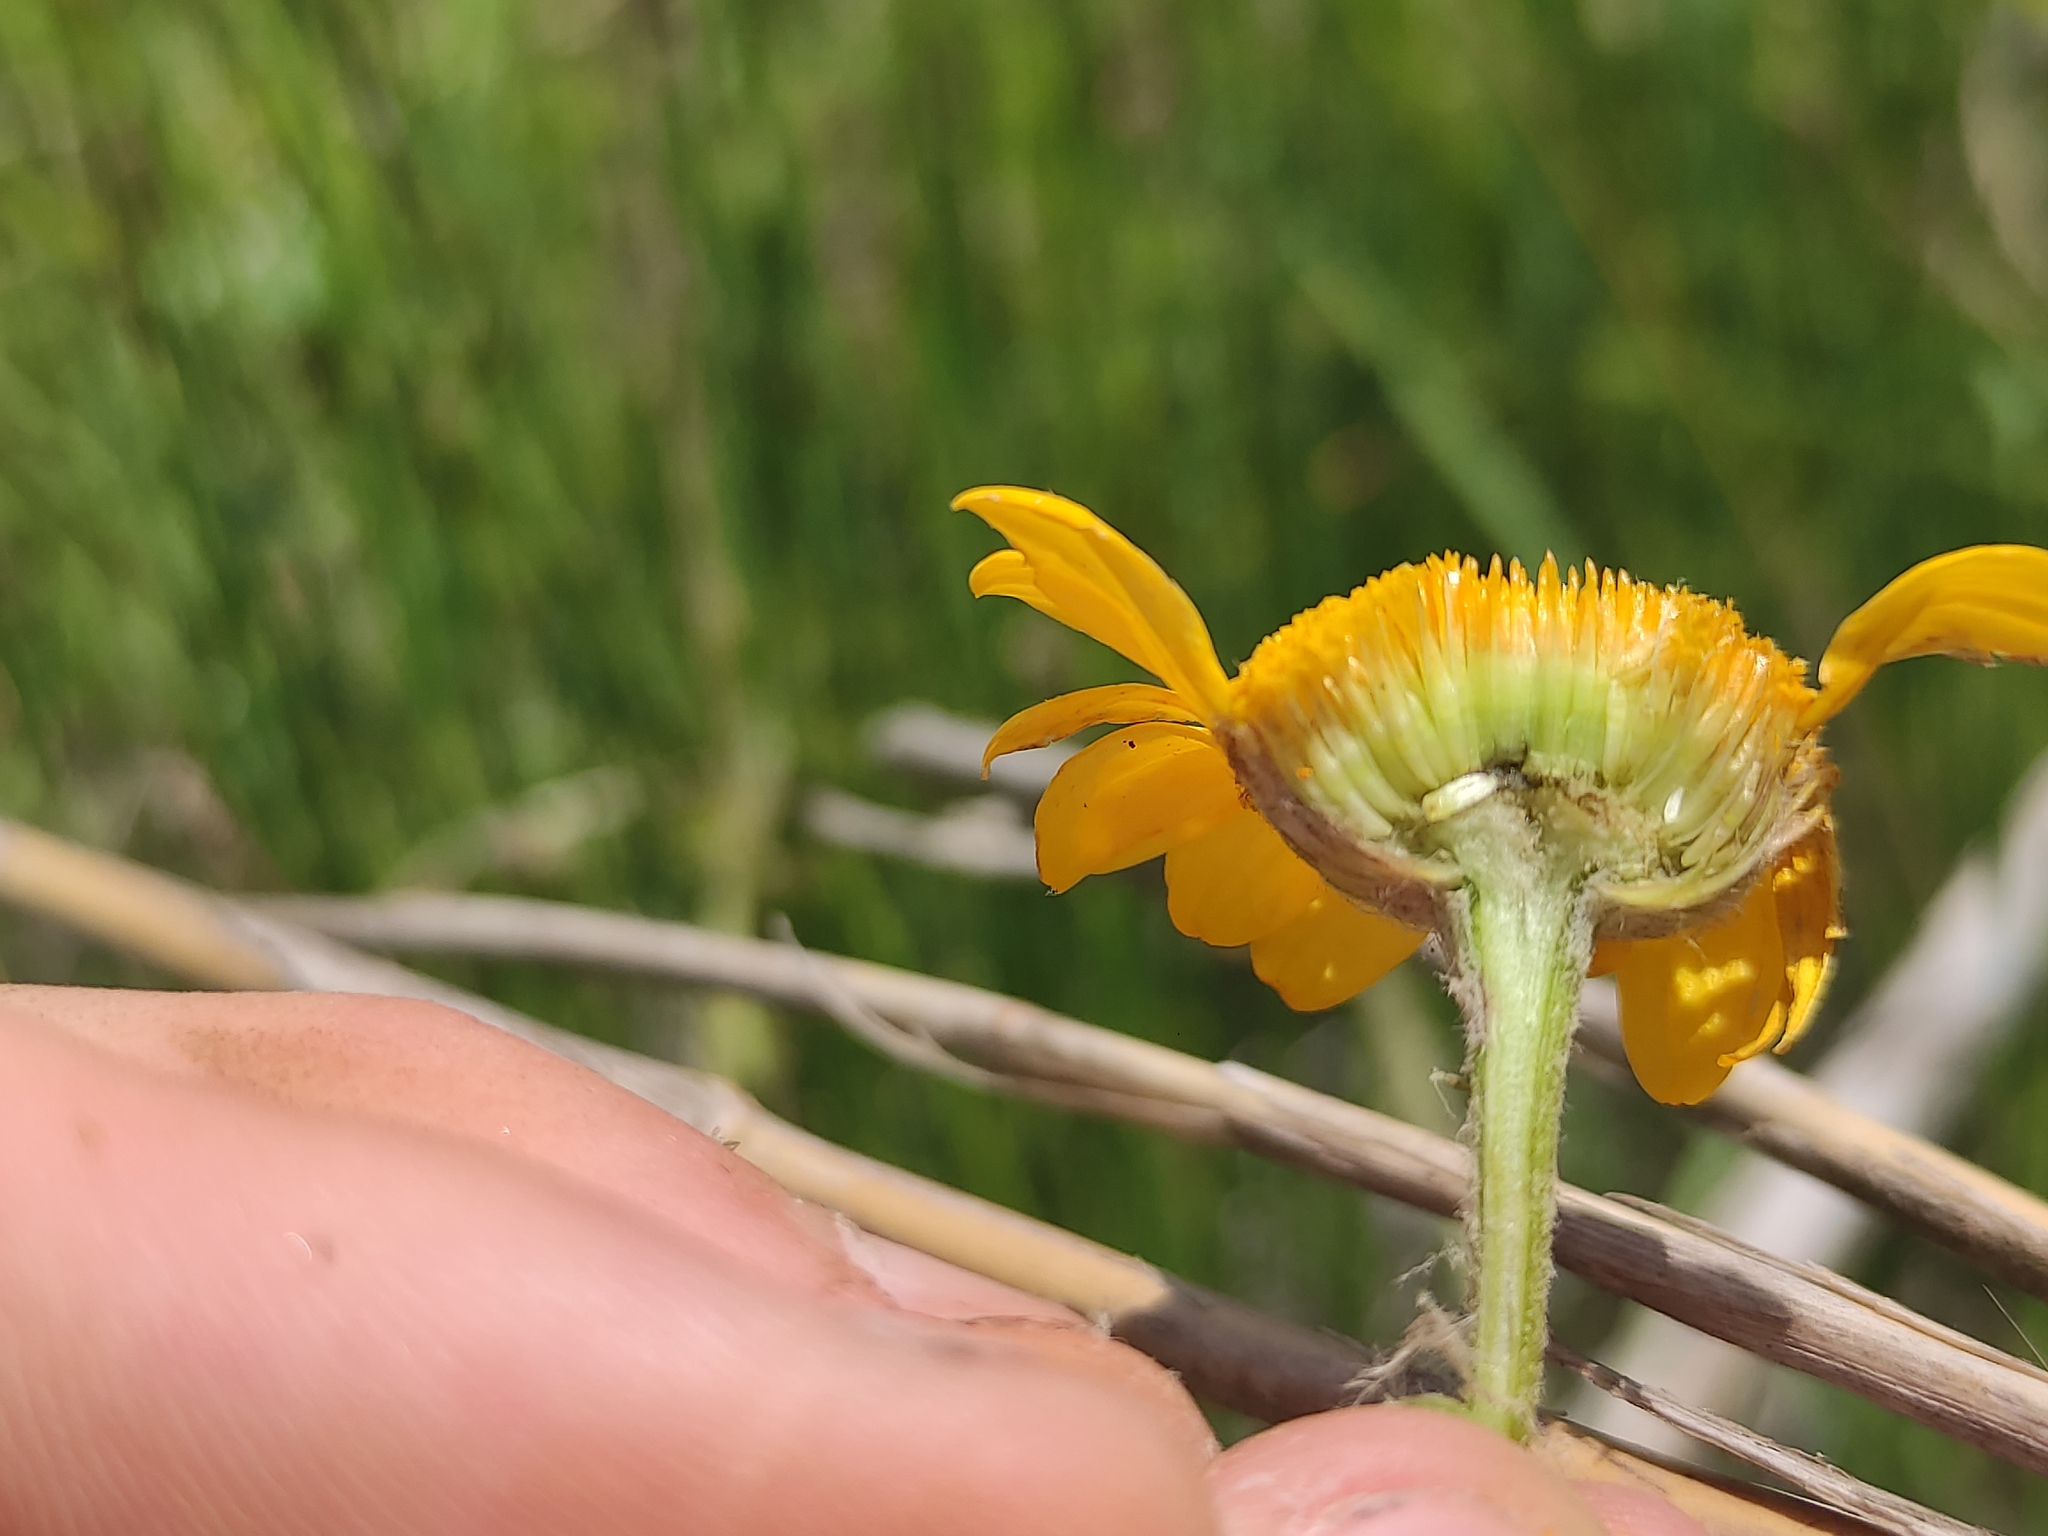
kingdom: Plantae
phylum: Tracheophyta
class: Magnoliopsida
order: Asterales
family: Asteraceae
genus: Cota
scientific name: Cota tinctoria
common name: Golden chamomile
